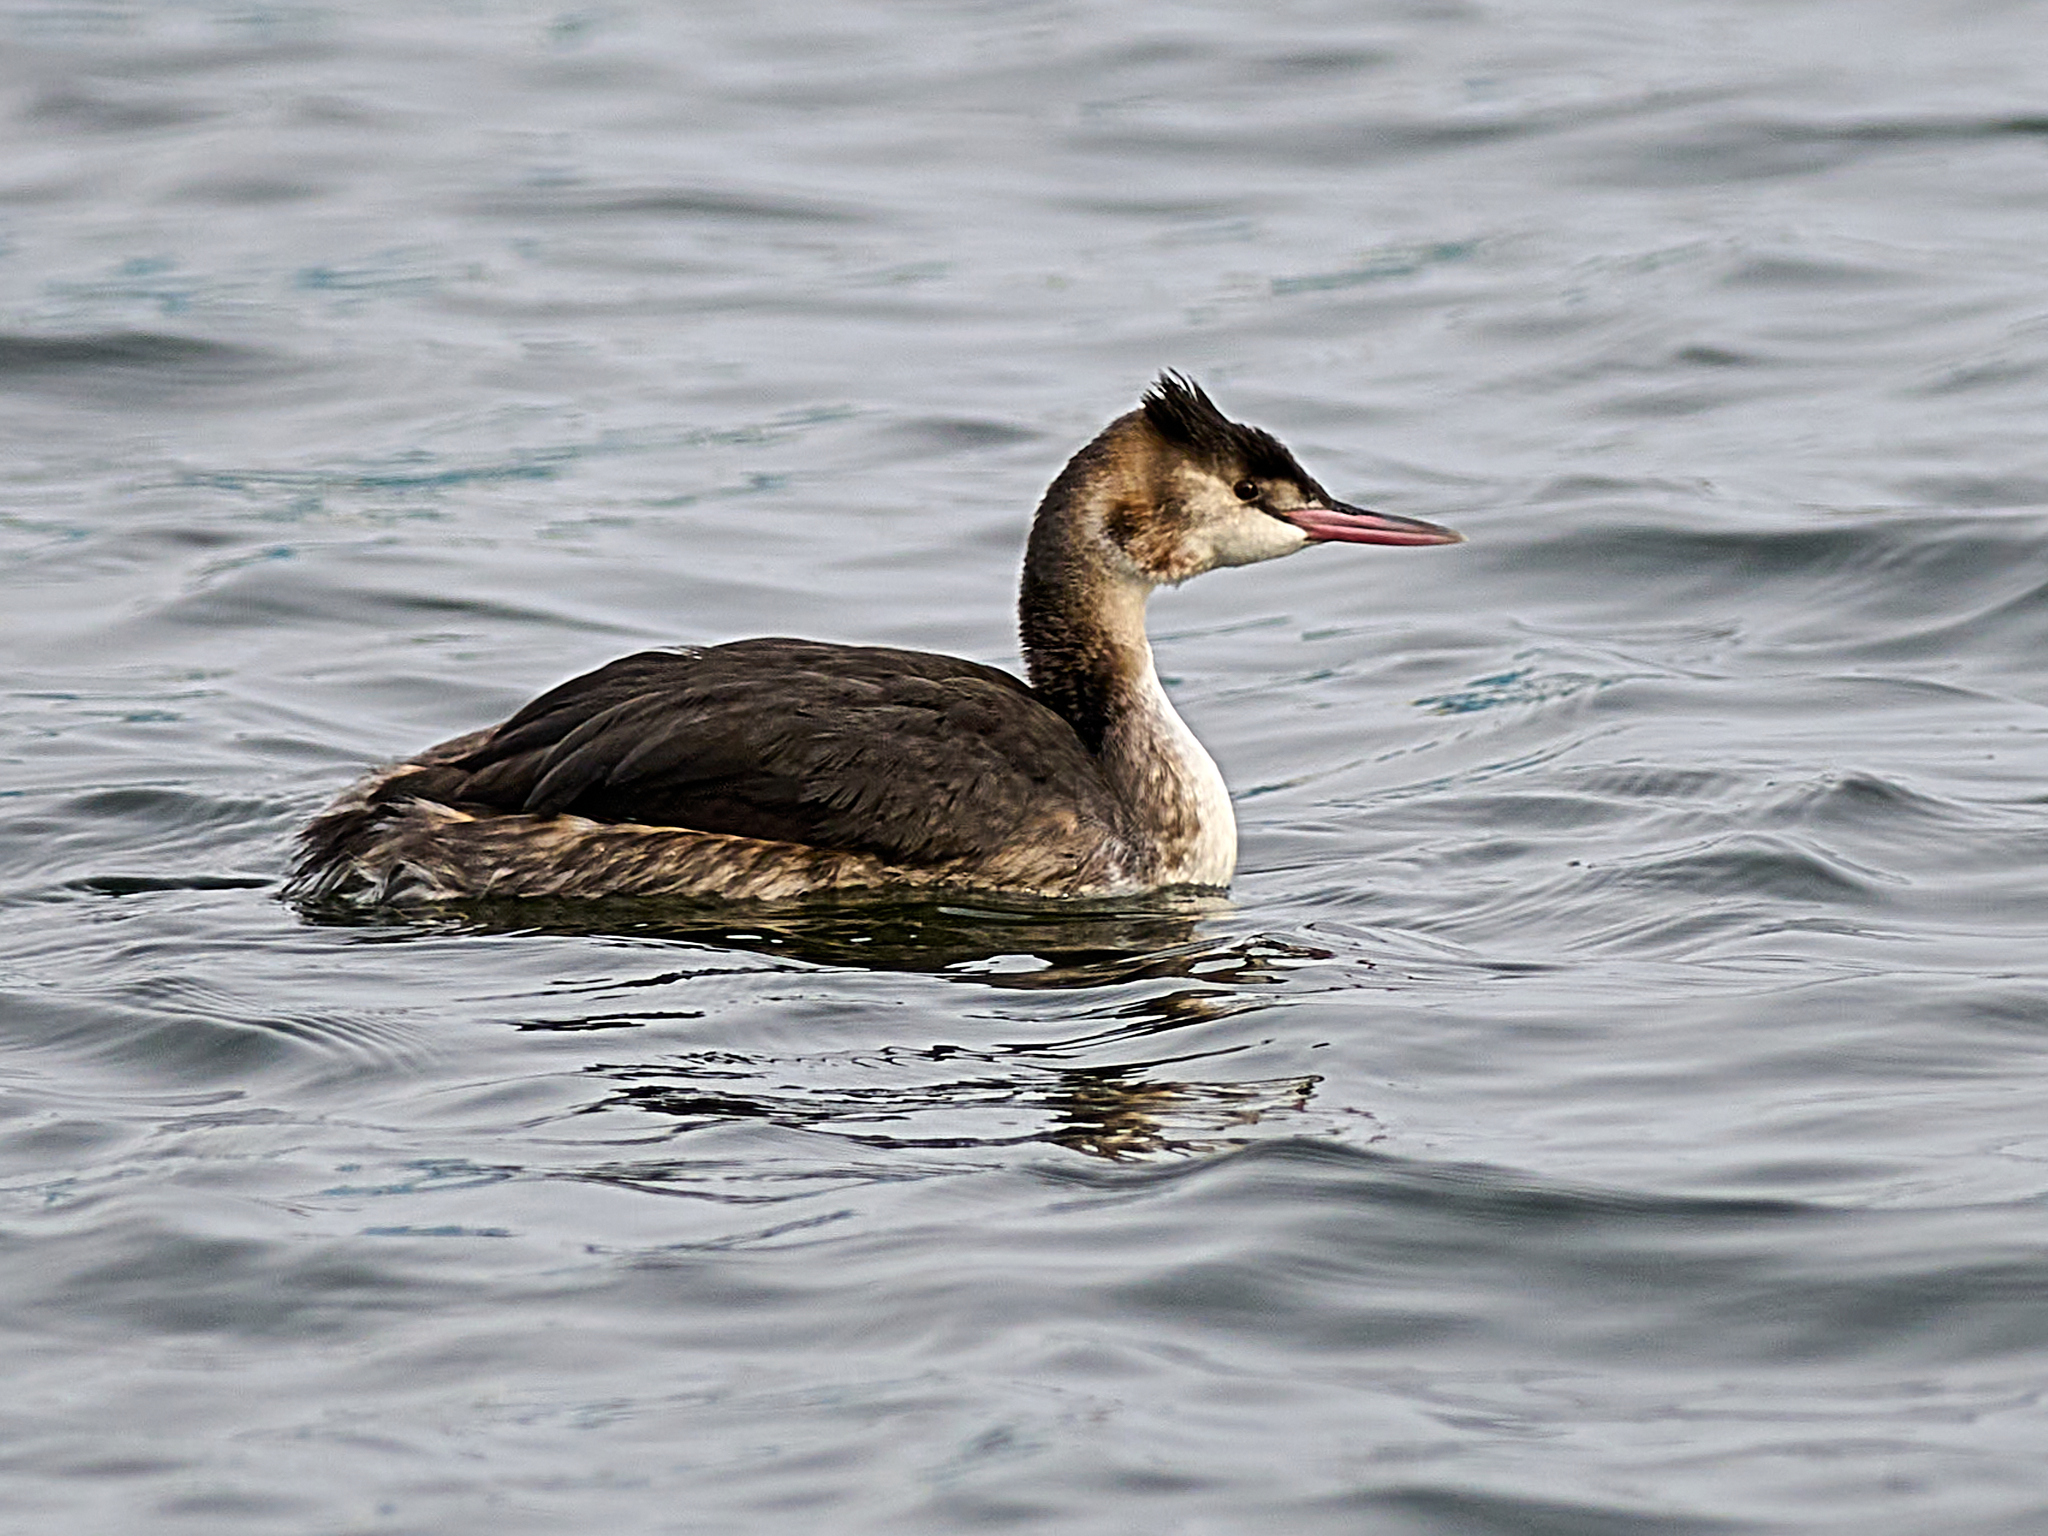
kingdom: Animalia
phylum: Chordata
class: Aves
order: Podicipediformes
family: Podicipedidae
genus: Podiceps
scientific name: Podiceps cristatus
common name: Great crested grebe
